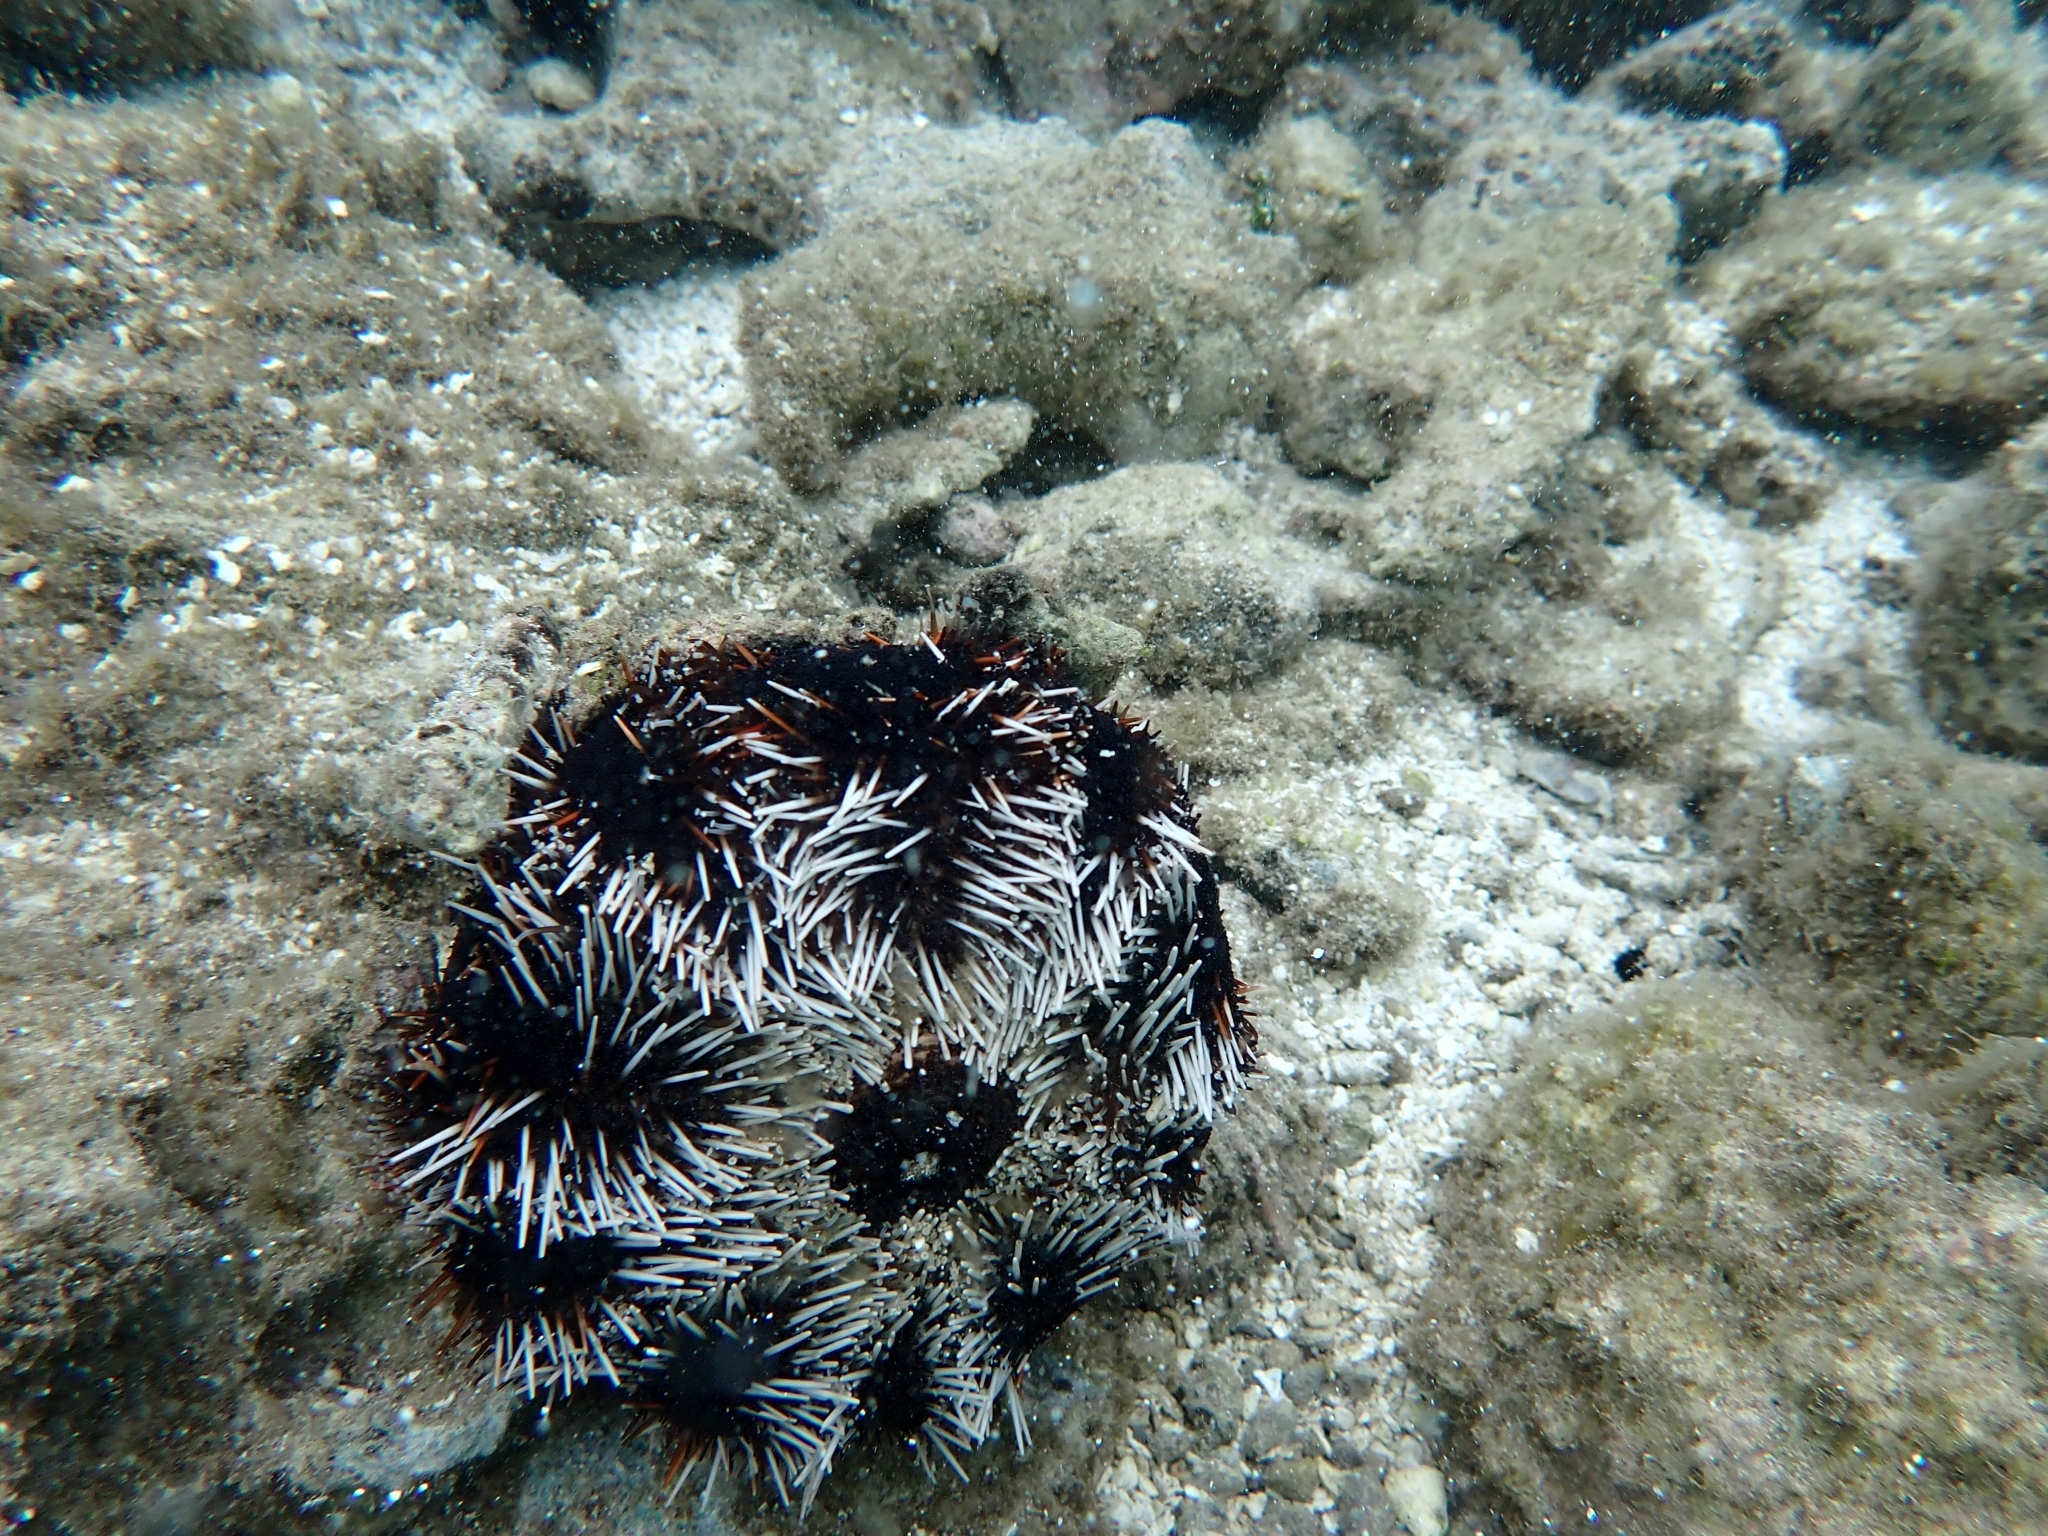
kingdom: Animalia
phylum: Echinodermata
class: Echinoidea
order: Camarodonta
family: Toxopneustidae
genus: Tripneustes
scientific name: Tripneustes gratilla
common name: Bischofsmützenseeigel
